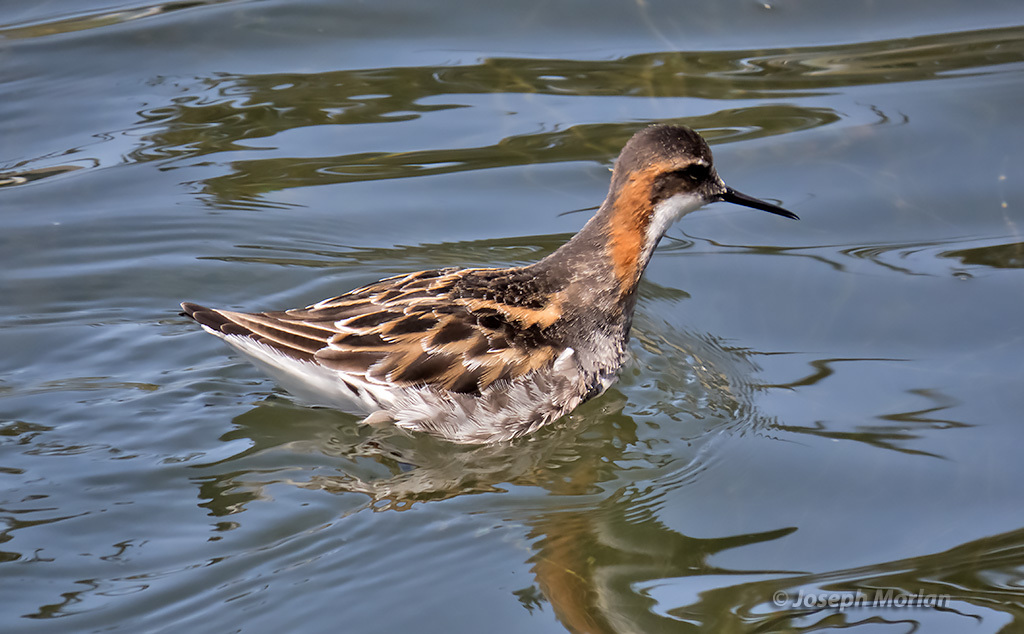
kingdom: Animalia
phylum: Chordata
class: Aves
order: Charadriiformes
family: Scolopacidae
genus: Phalaropus
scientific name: Phalaropus lobatus
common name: Red-necked phalarope
